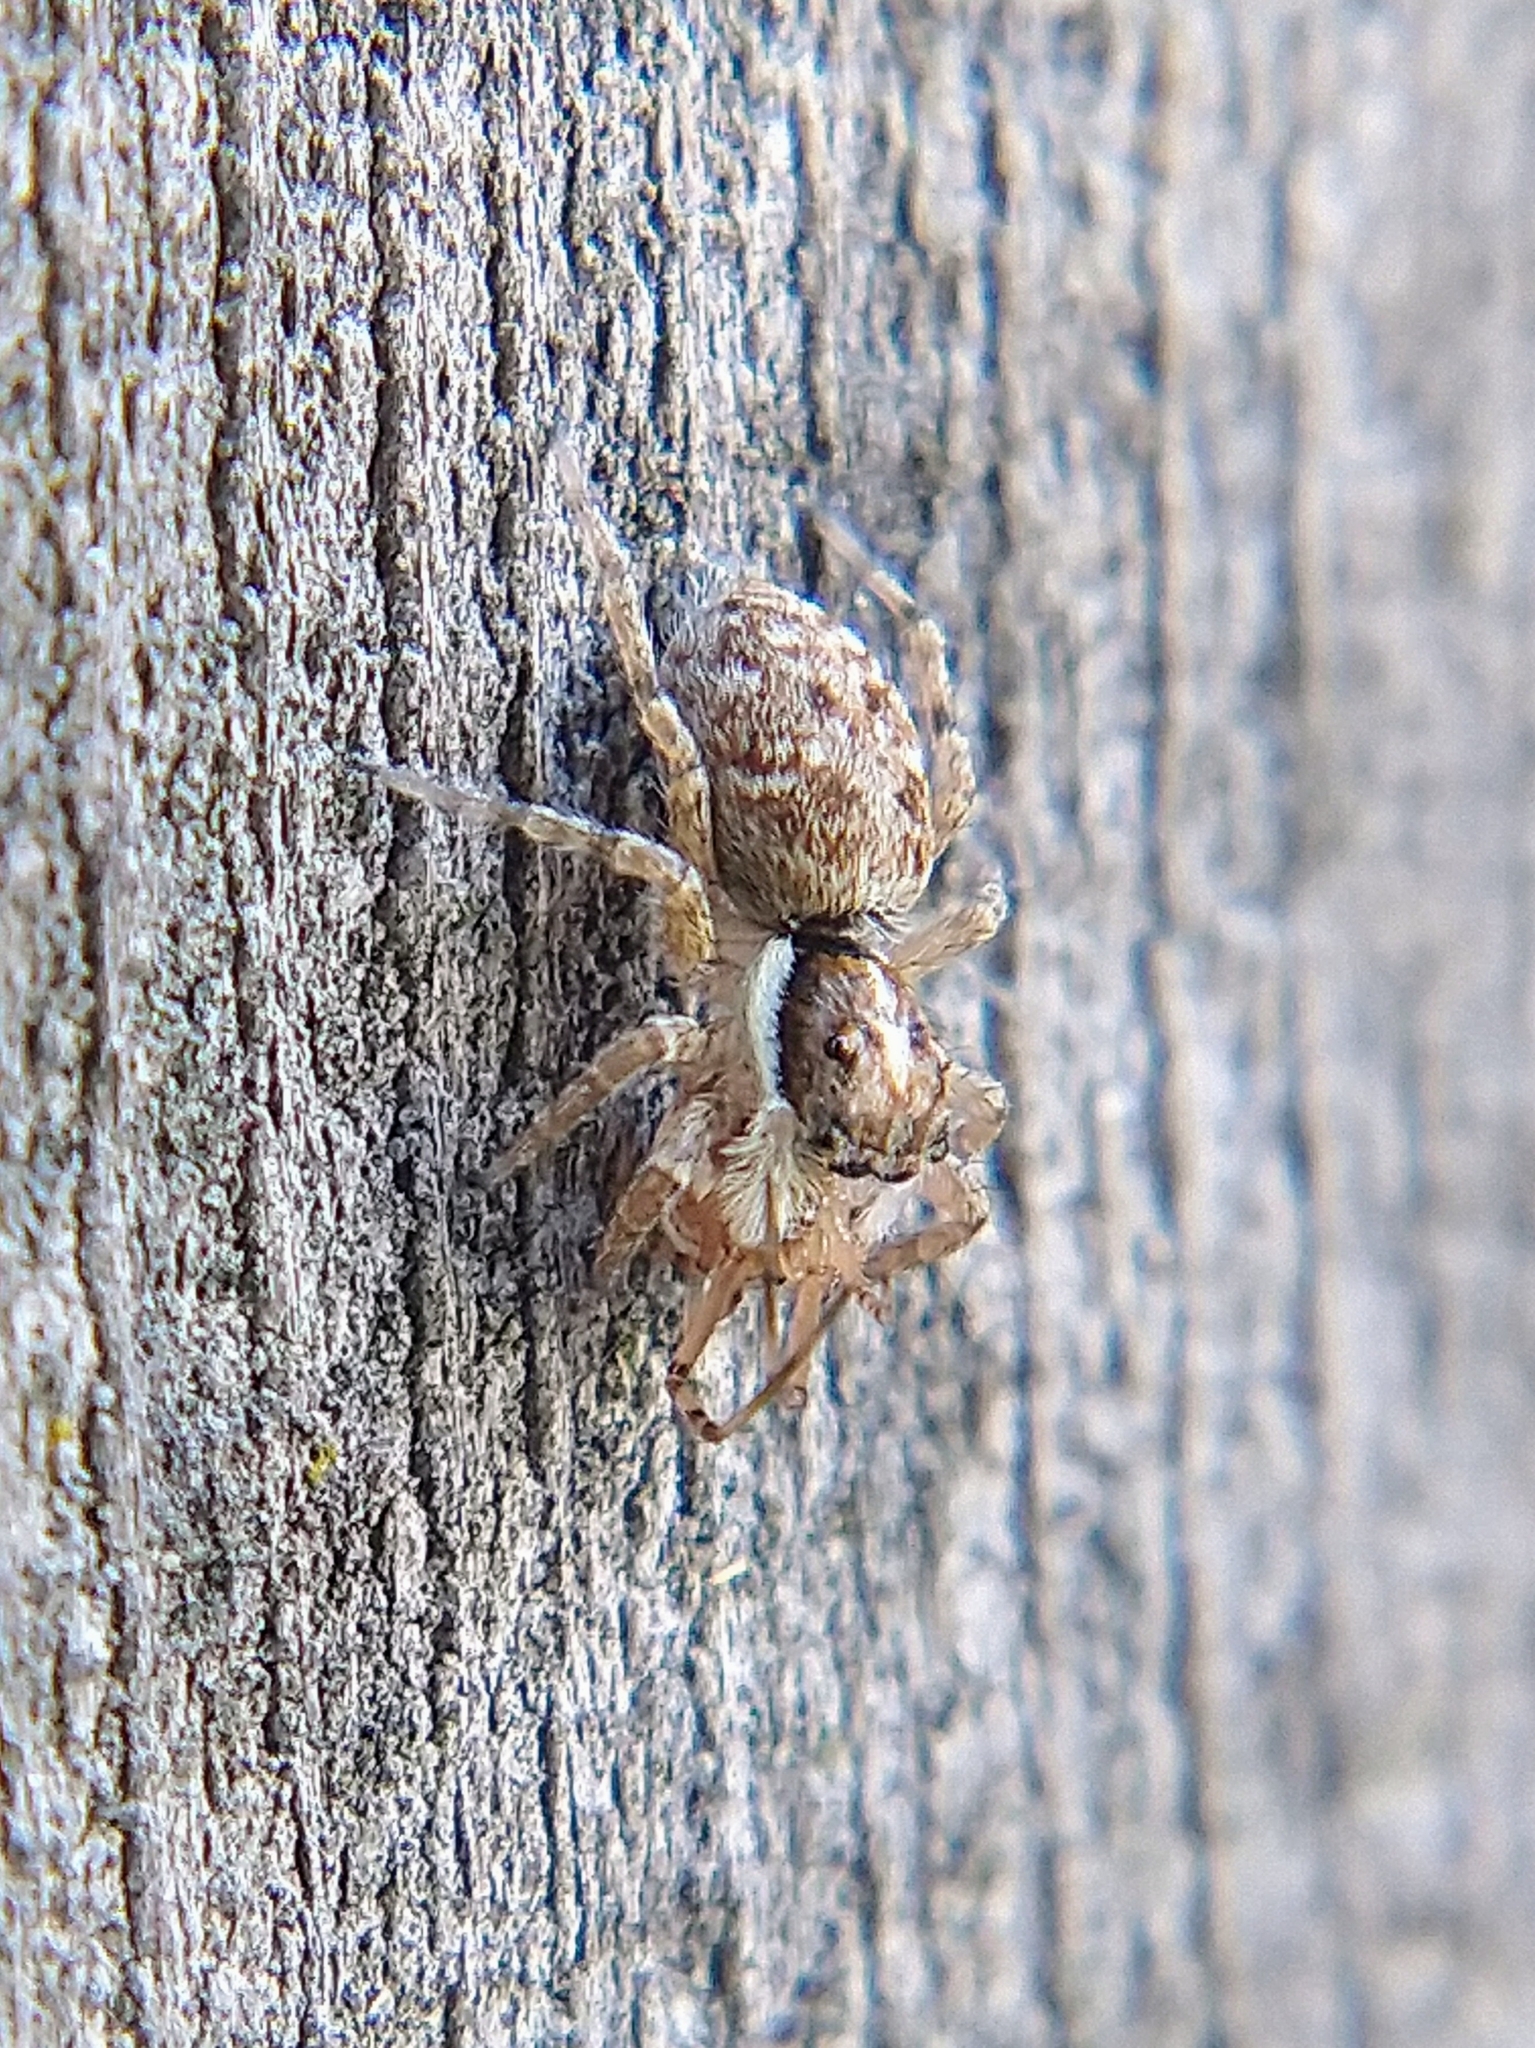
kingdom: Animalia
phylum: Arthropoda
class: Arachnida
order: Araneae
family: Salticidae
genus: Menemerus
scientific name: Menemerus semilimbatus
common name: Jumping spider
